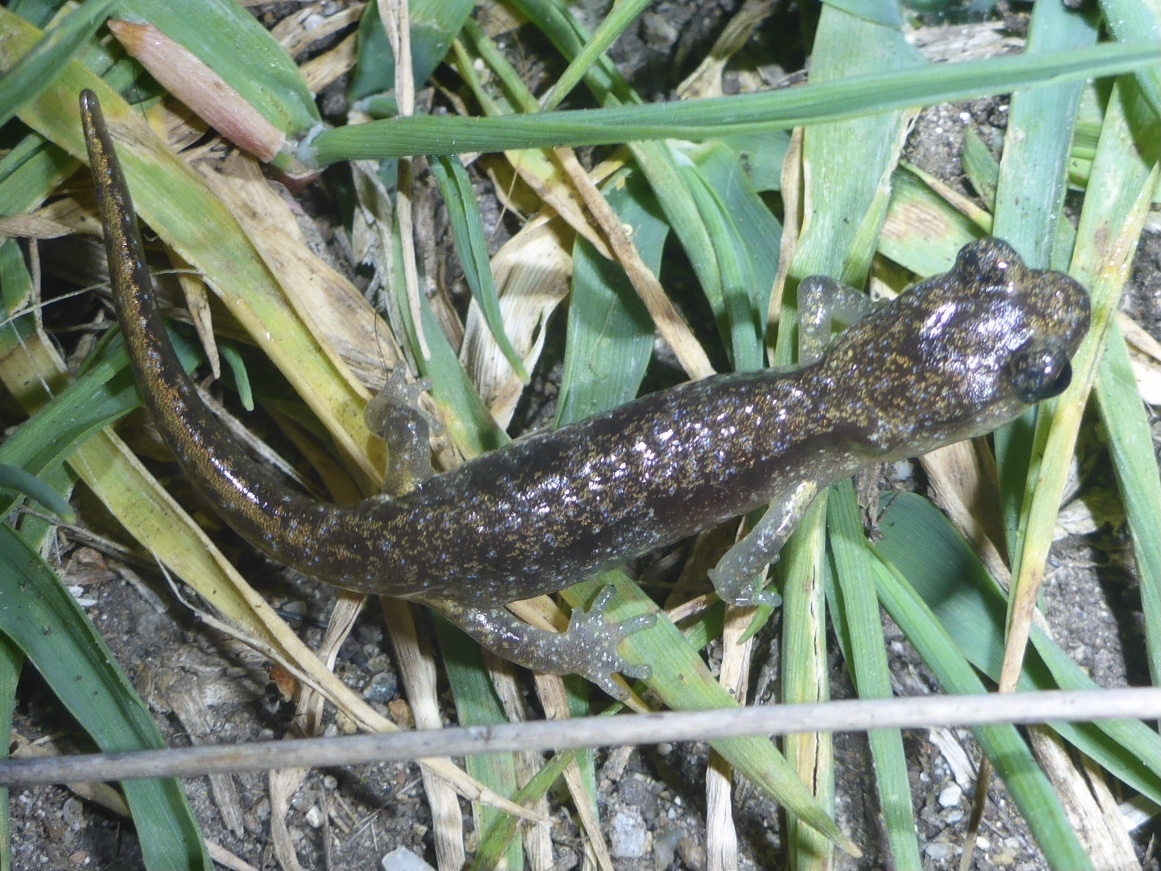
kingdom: Animalia
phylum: Chordata
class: Amphibia
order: Caudata
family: Plethodontidae
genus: Aneides
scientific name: Aneides lugubris
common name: Arboreal salamander
